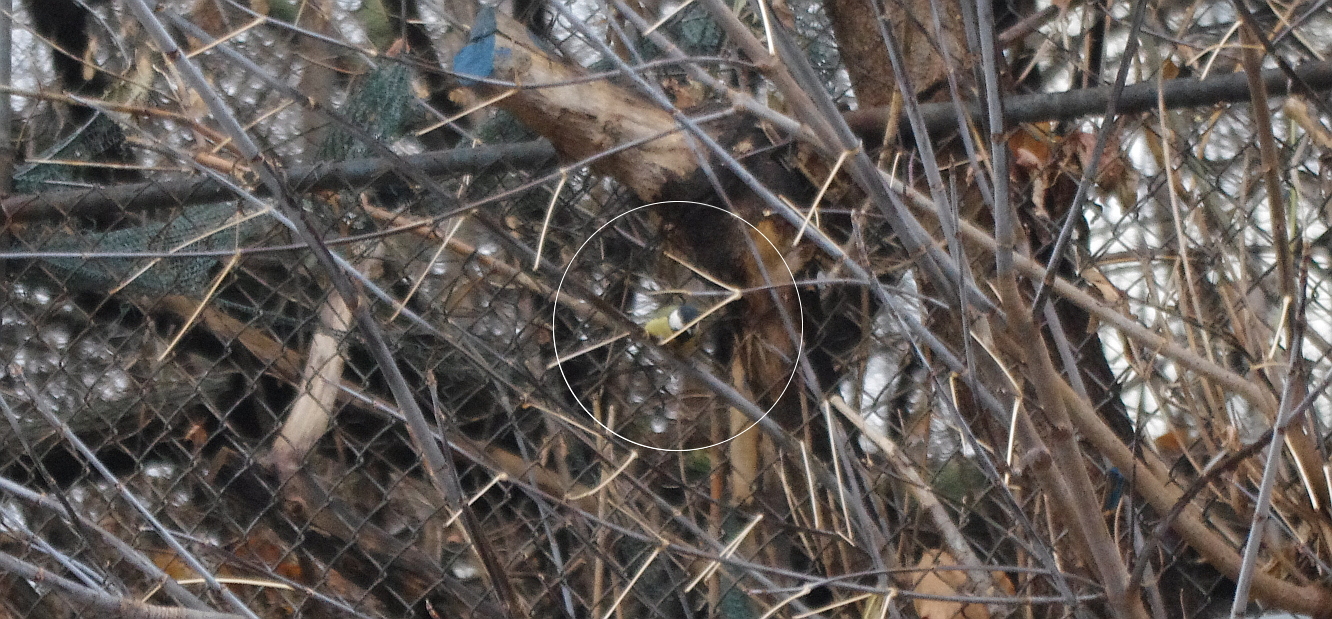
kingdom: Animalia
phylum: Chordata
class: Aves
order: Passeriformes
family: Paridae
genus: Parus
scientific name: Parus major
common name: Great tit
